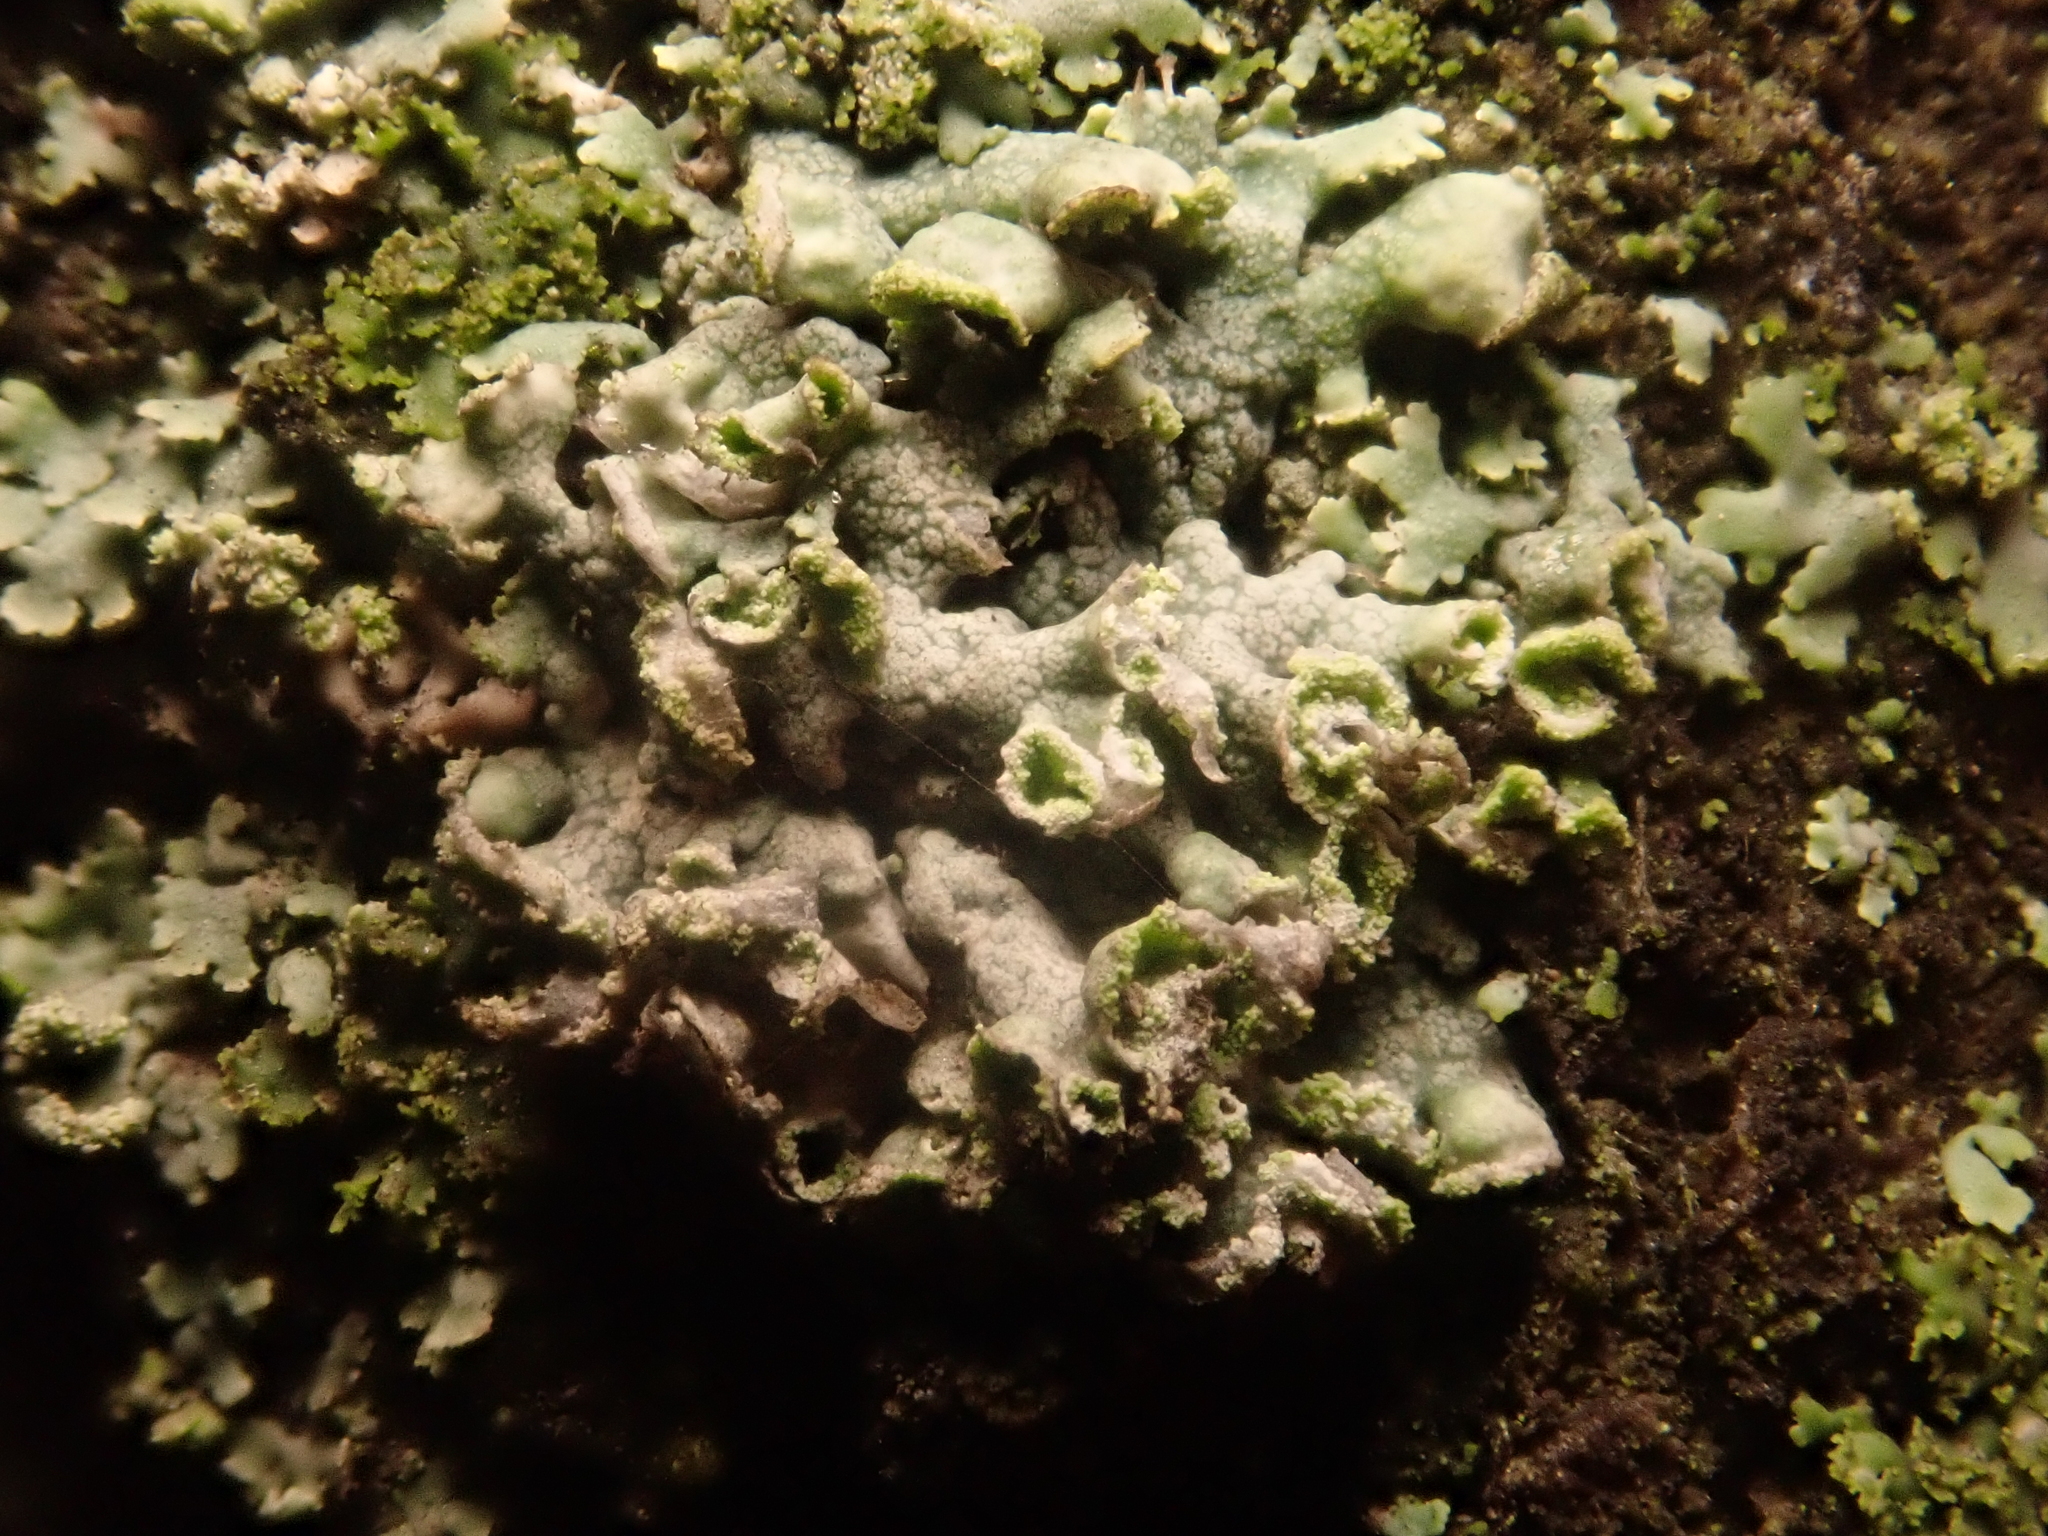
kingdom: Fungi
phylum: Ascomycota
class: Lecanoromycetes
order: Caliciales
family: Physciaceae
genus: Physcia
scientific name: Physcia adscendens
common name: Hooded rosette lichen
